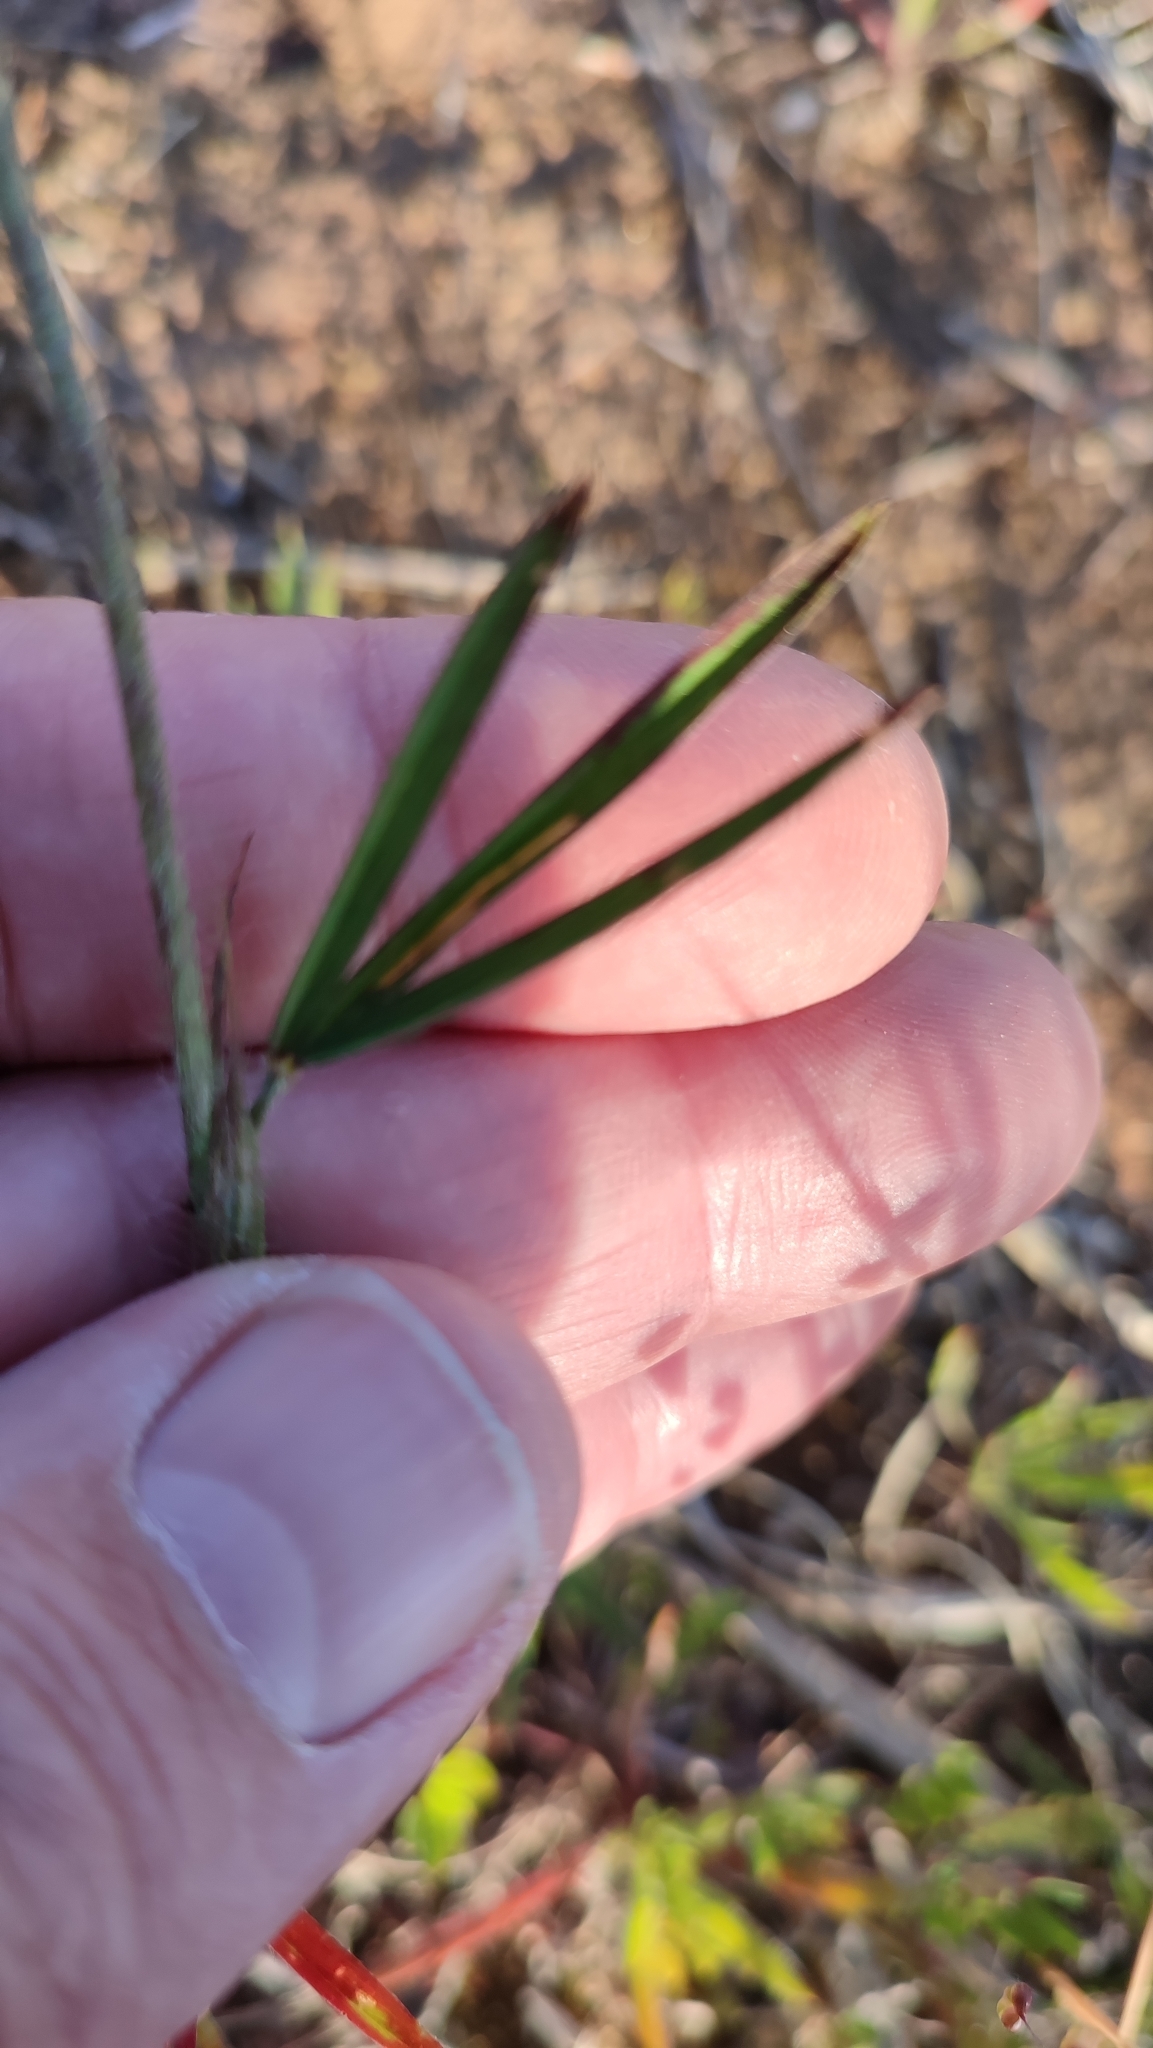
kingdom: Plantae
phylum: Tracheophyta
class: Magnoliopsida
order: Fabales
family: Fabaceae
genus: Trifolium
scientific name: Trifolium angustifolium
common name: Narrow clover
